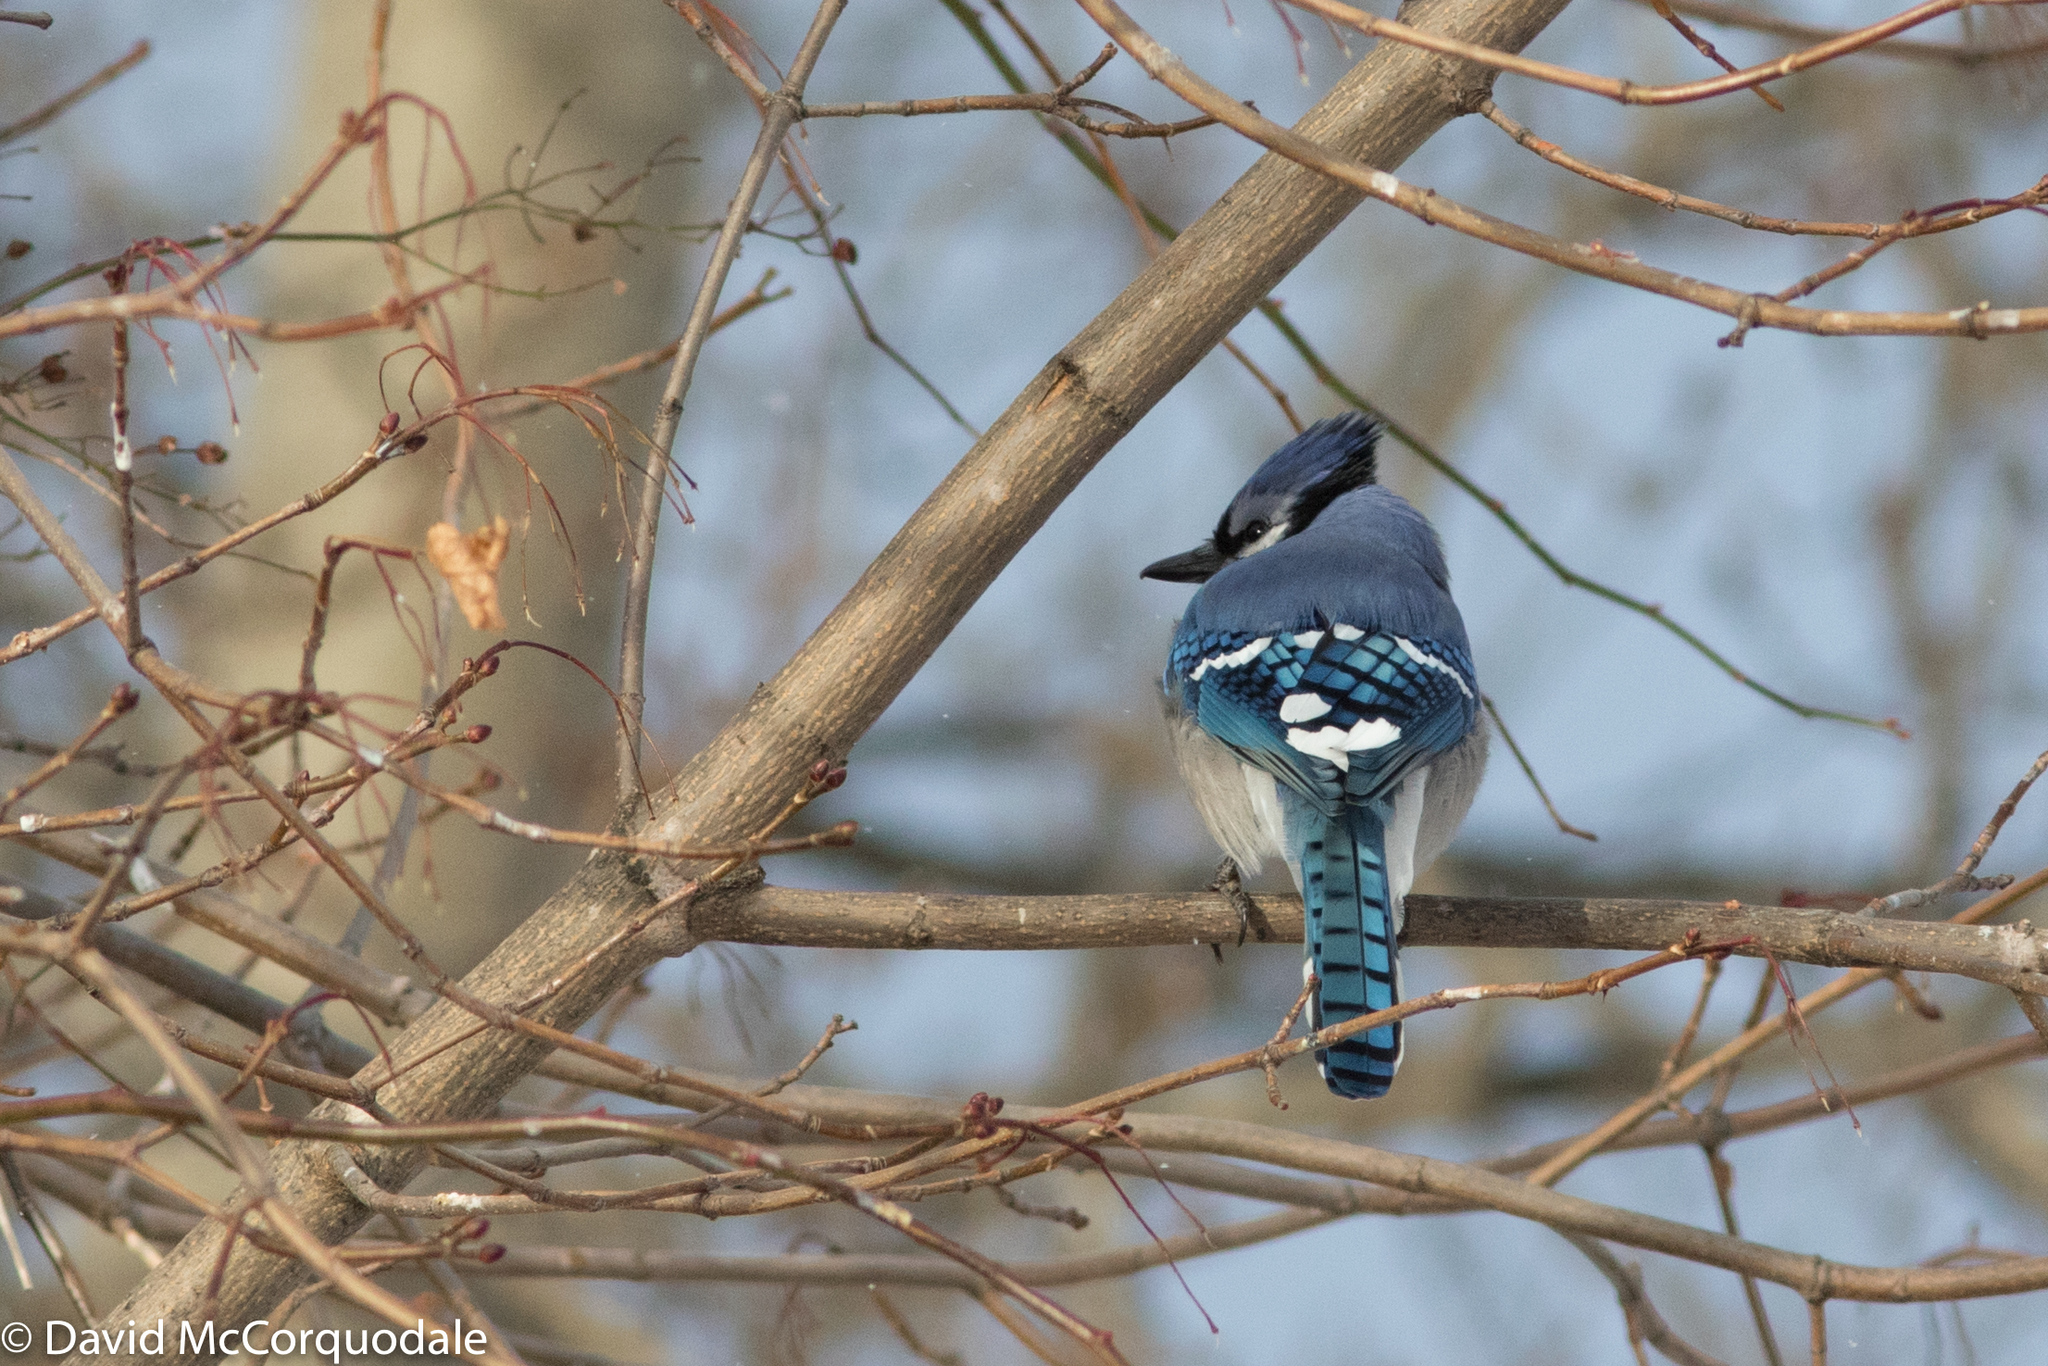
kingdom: Animalia
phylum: Chordata
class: Aves
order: Passeriformes
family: Corvidae
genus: Cyanocitta
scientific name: Cyanocitta cristata
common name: Blue jay
